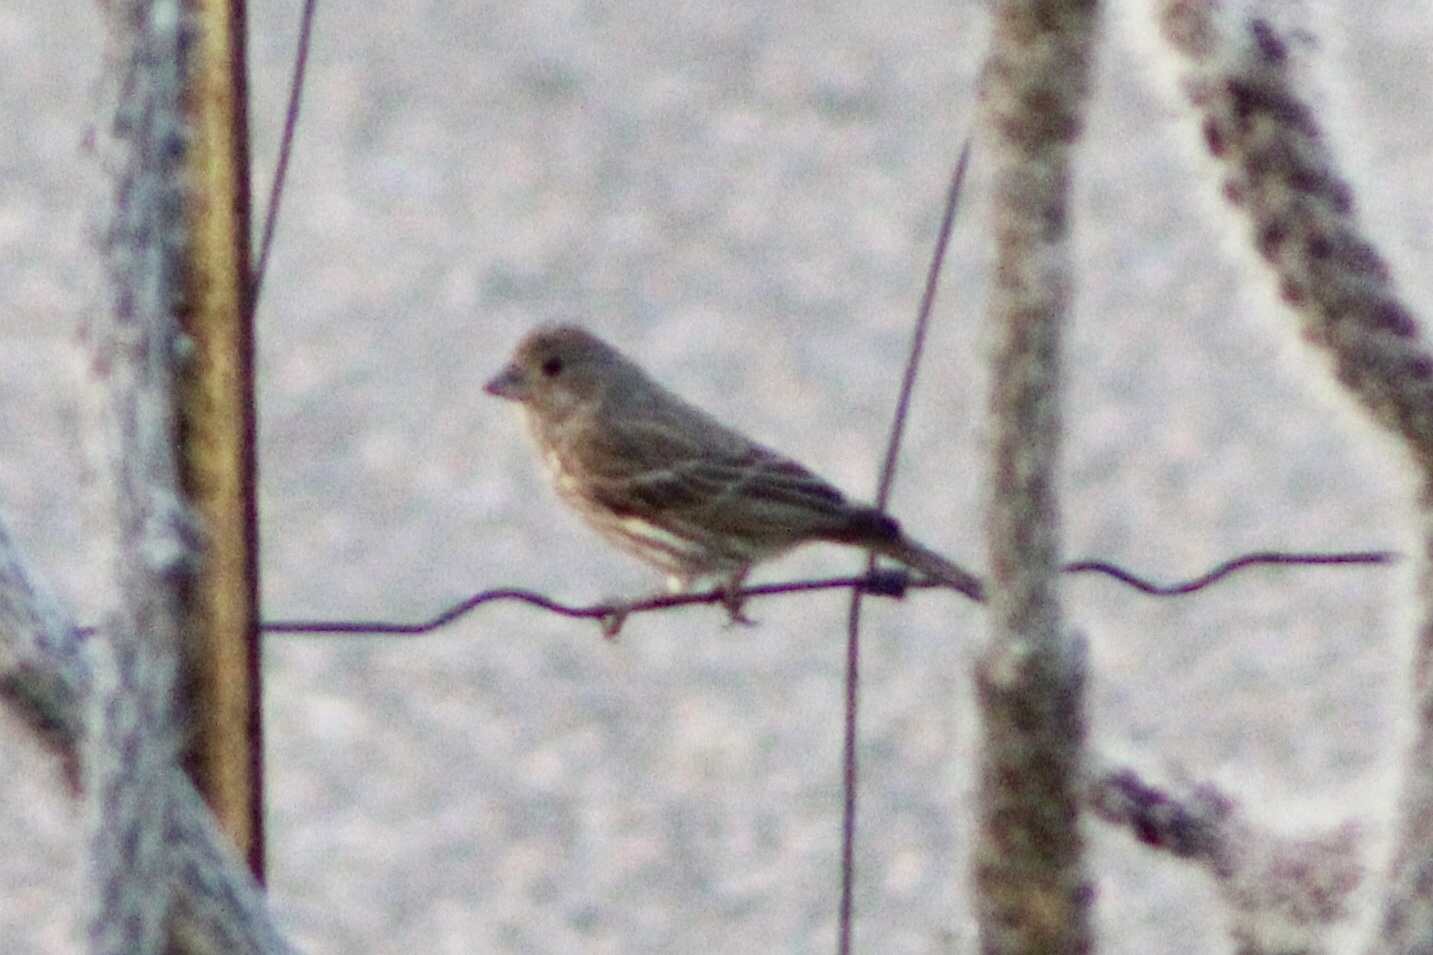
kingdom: Animalia
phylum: Chordata
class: Aves
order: Passeriformes
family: Fringillidae
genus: Haemorhous
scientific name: Haemorhous mexicanus
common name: House finch
